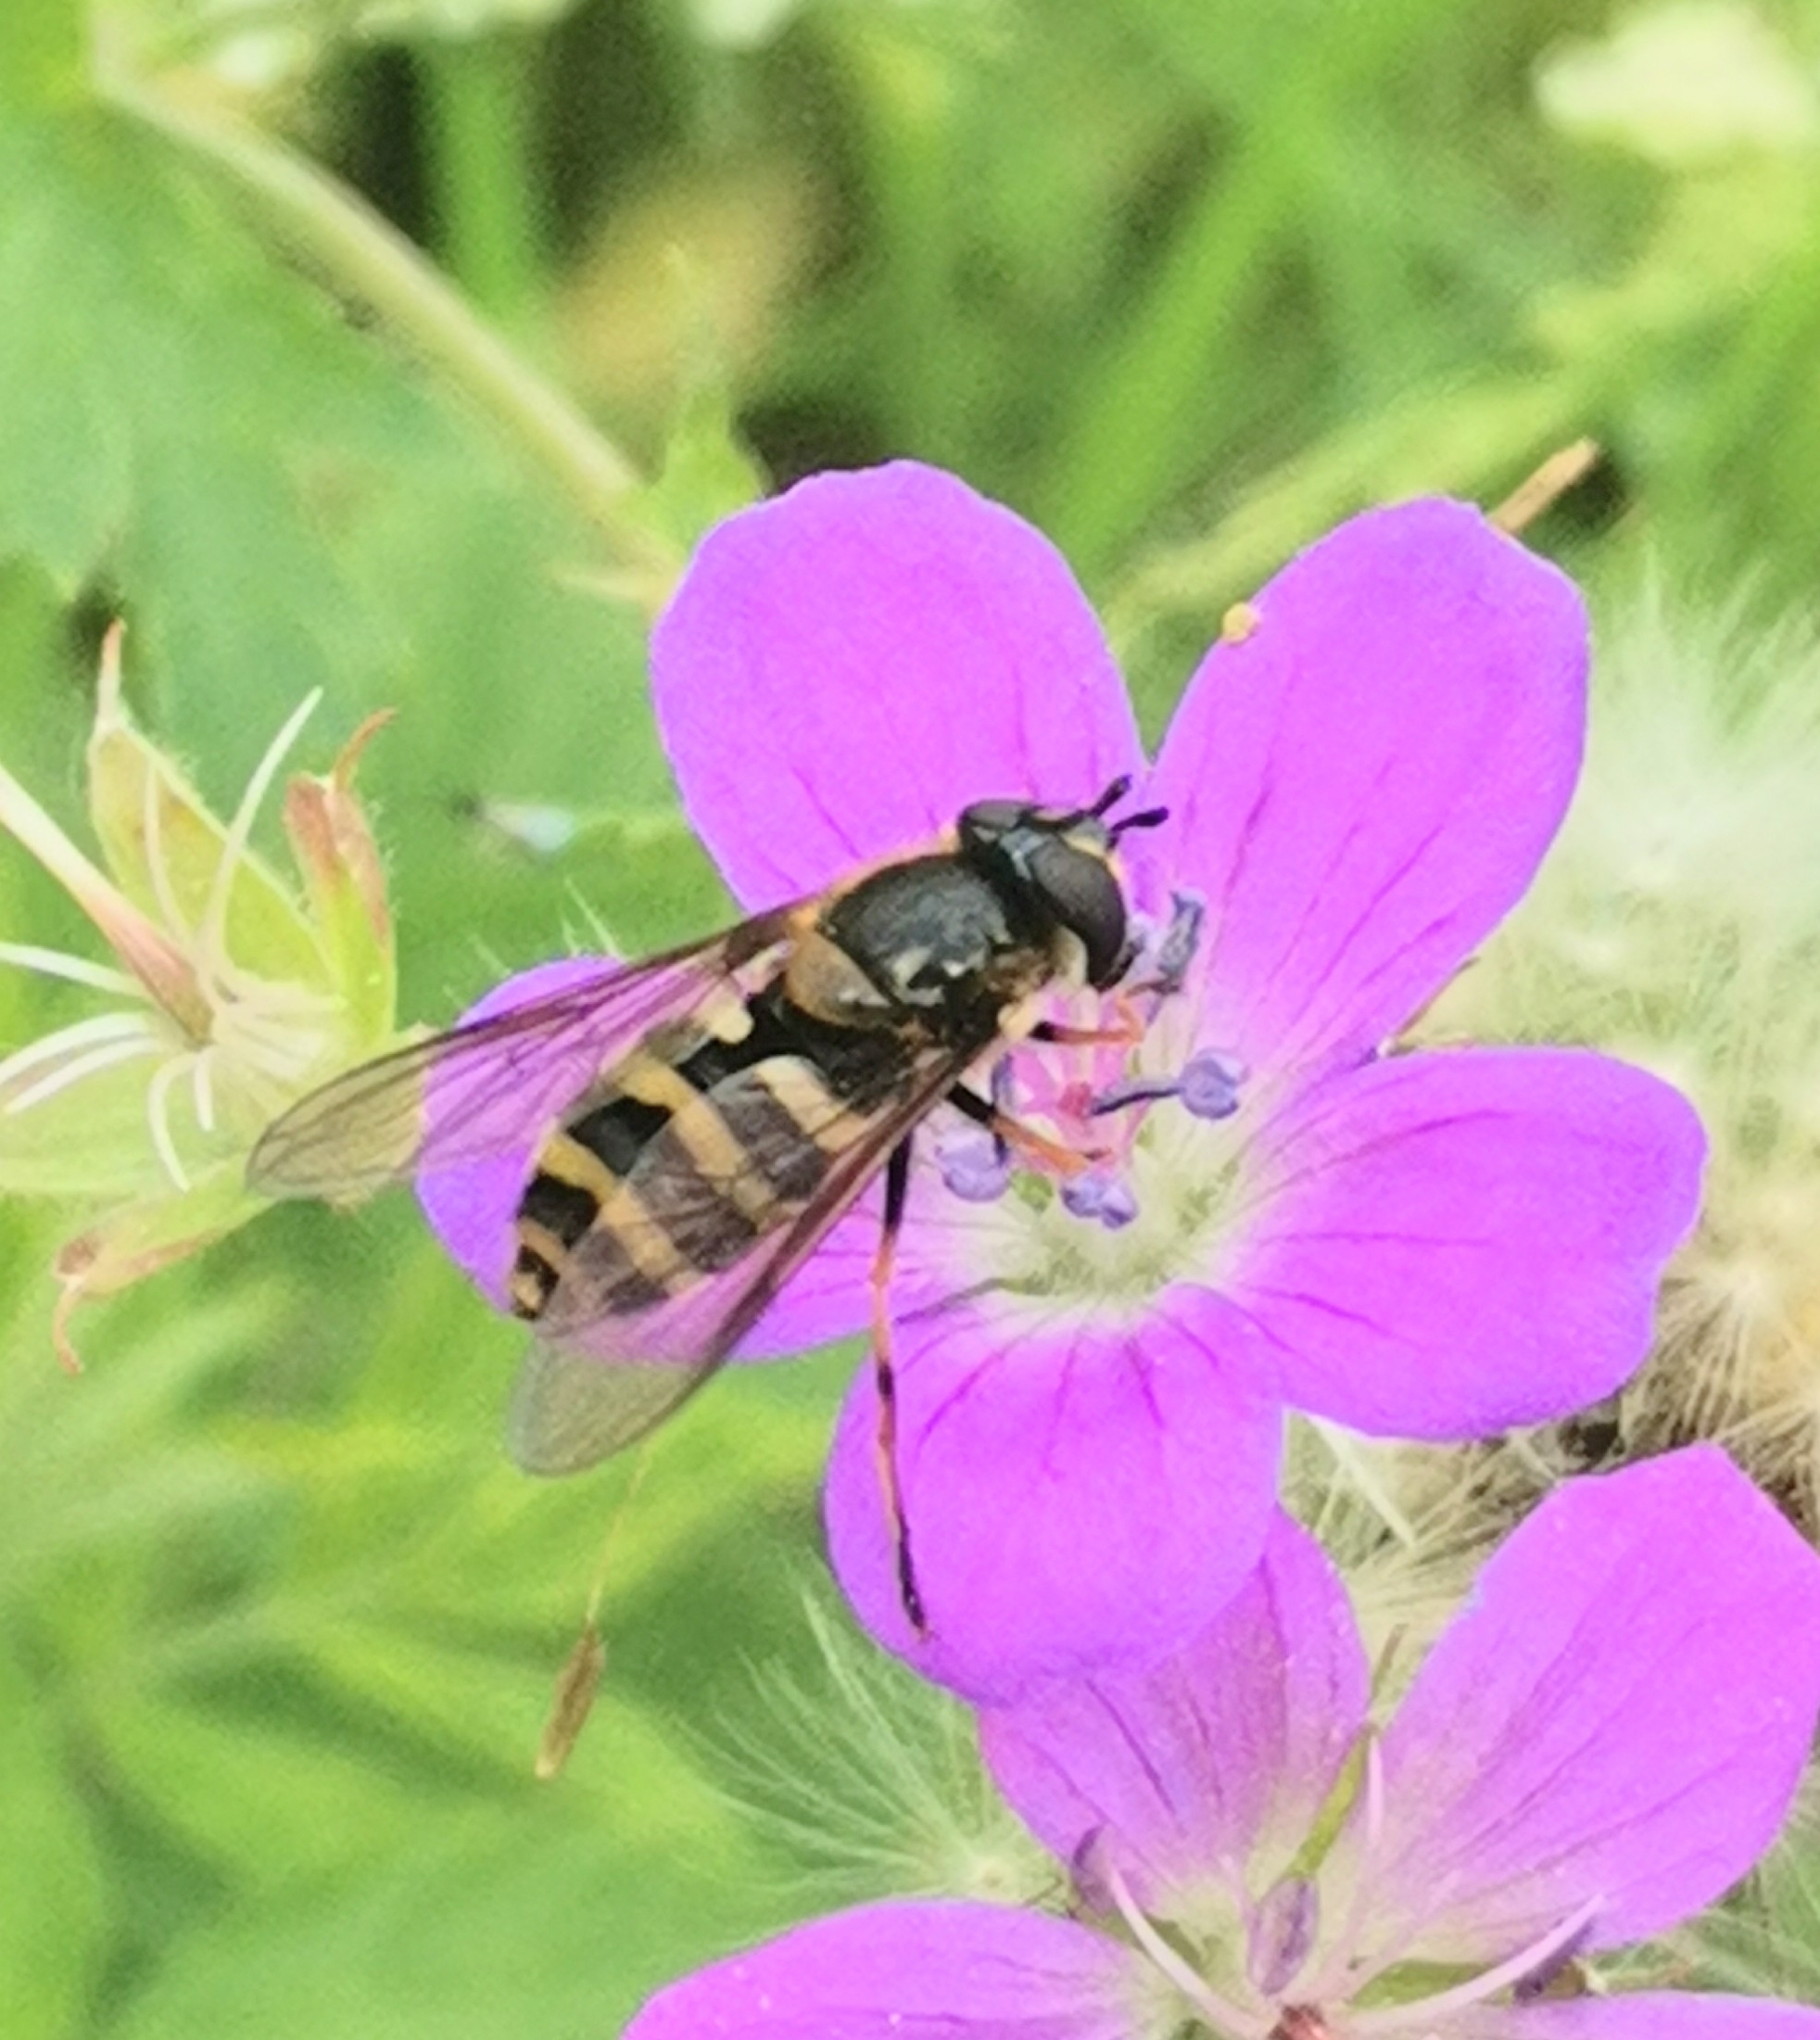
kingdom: Animalia
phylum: Arthropoda
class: Insecta
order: Diptera
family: Syrphidae
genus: Megasyrphus
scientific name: Megasyrphus erratica
